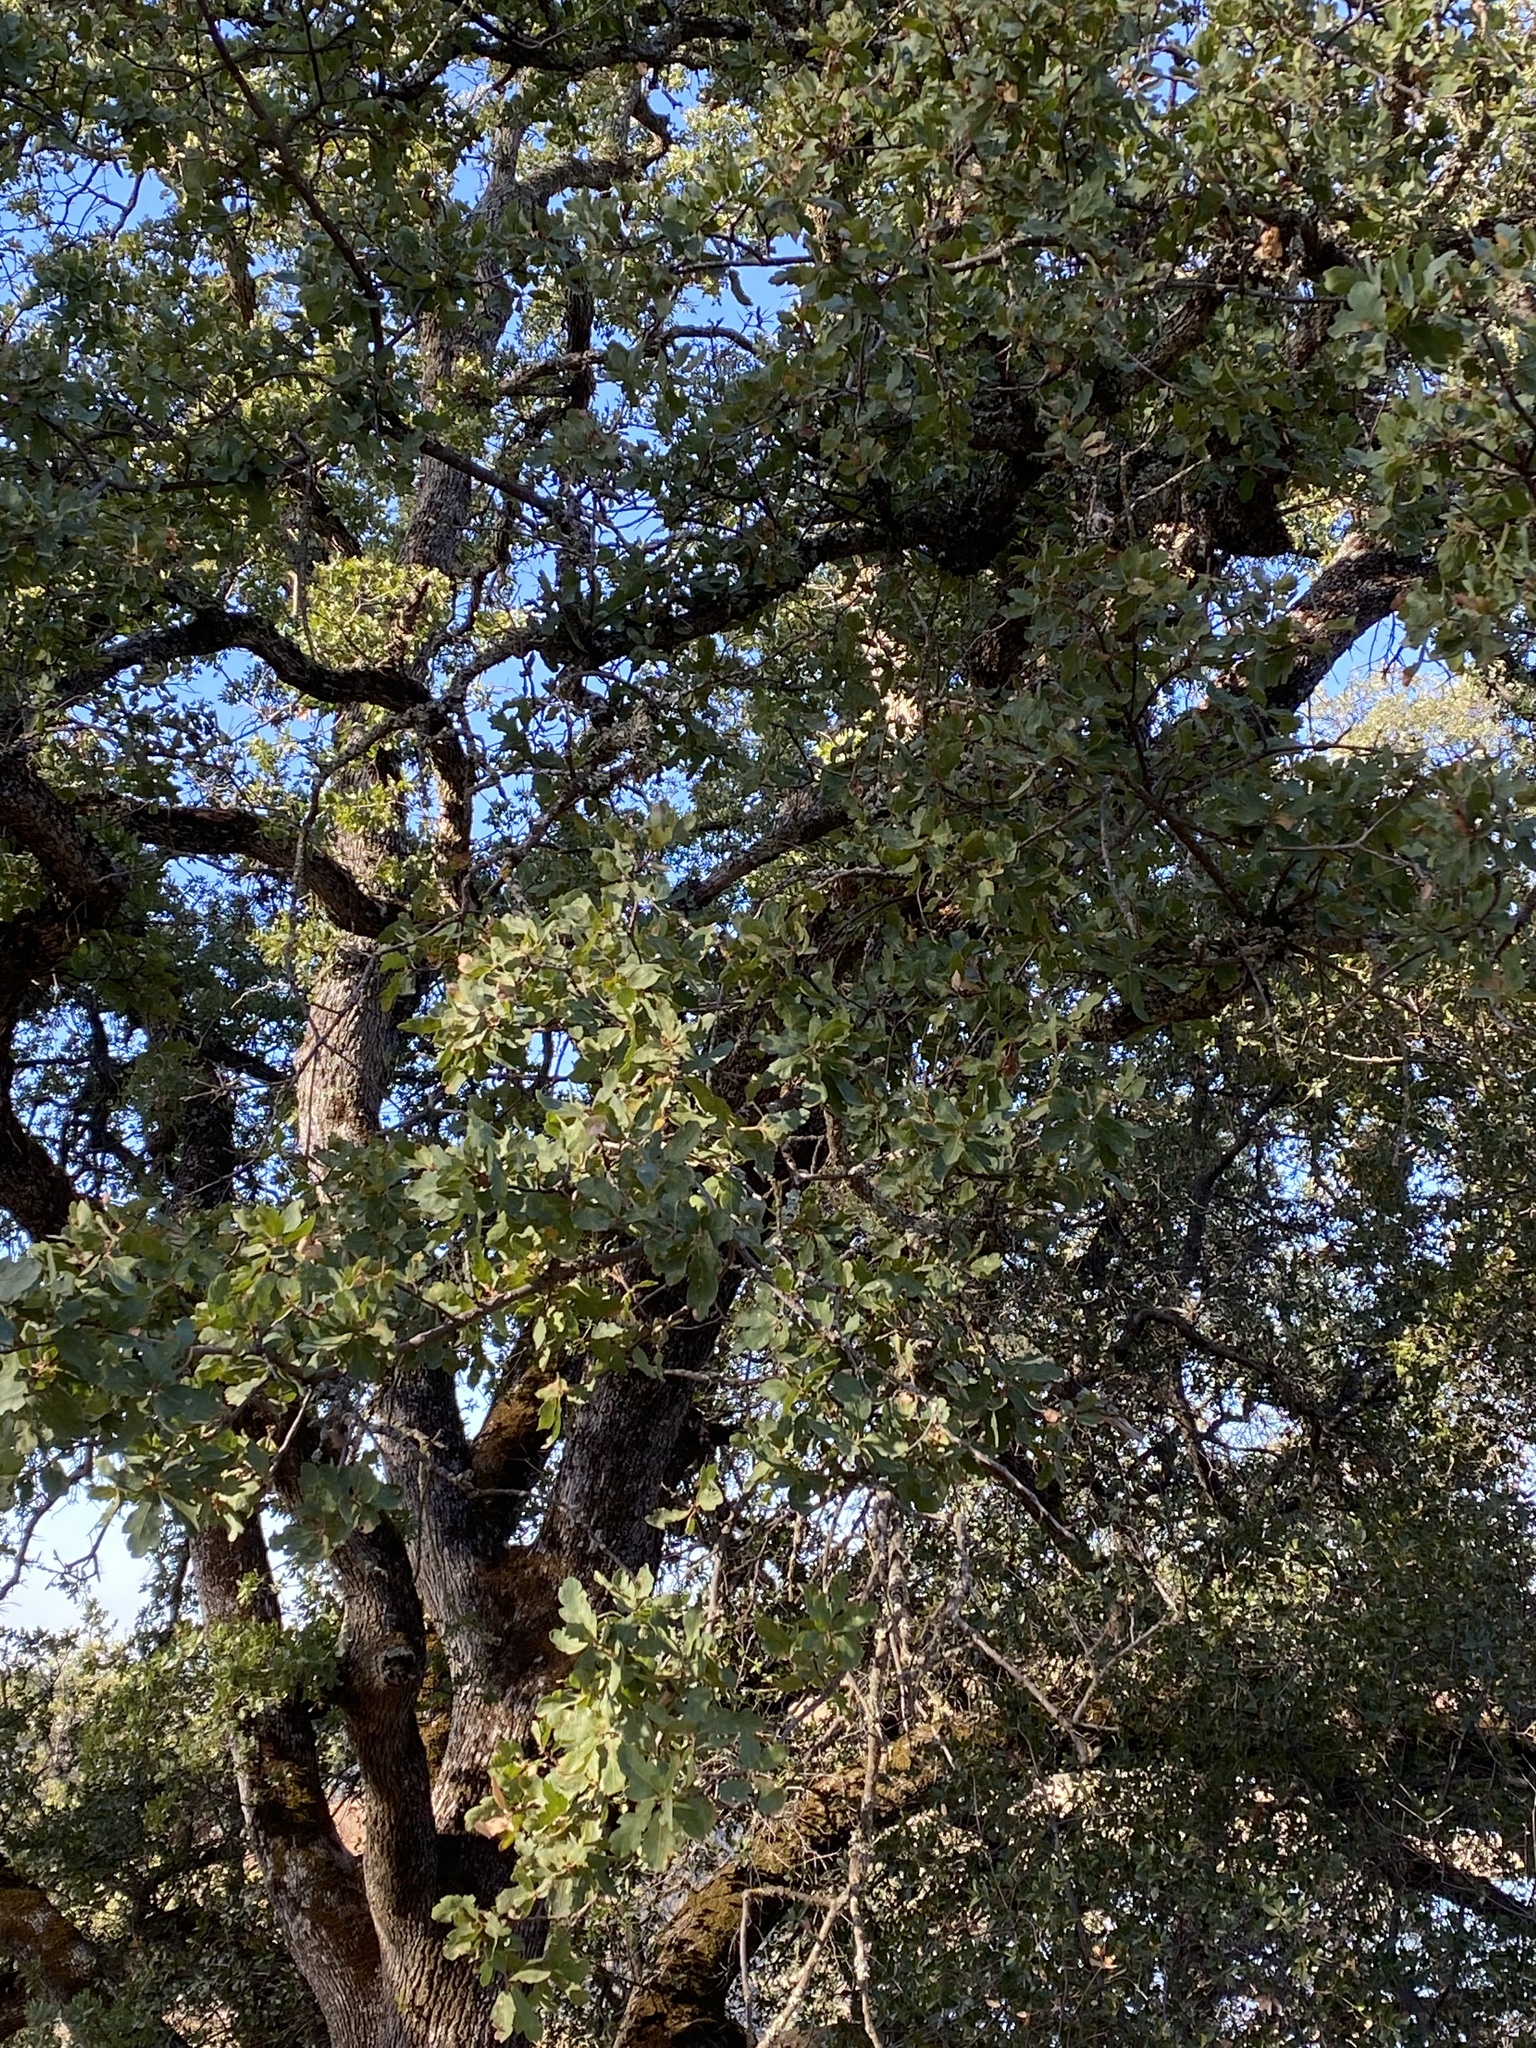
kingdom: Plantae
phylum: Tracheophyta
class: Magnoliopsida
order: Fagales
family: Fagaceae
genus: Quercus
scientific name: Quercus douglasii
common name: Blue oak
